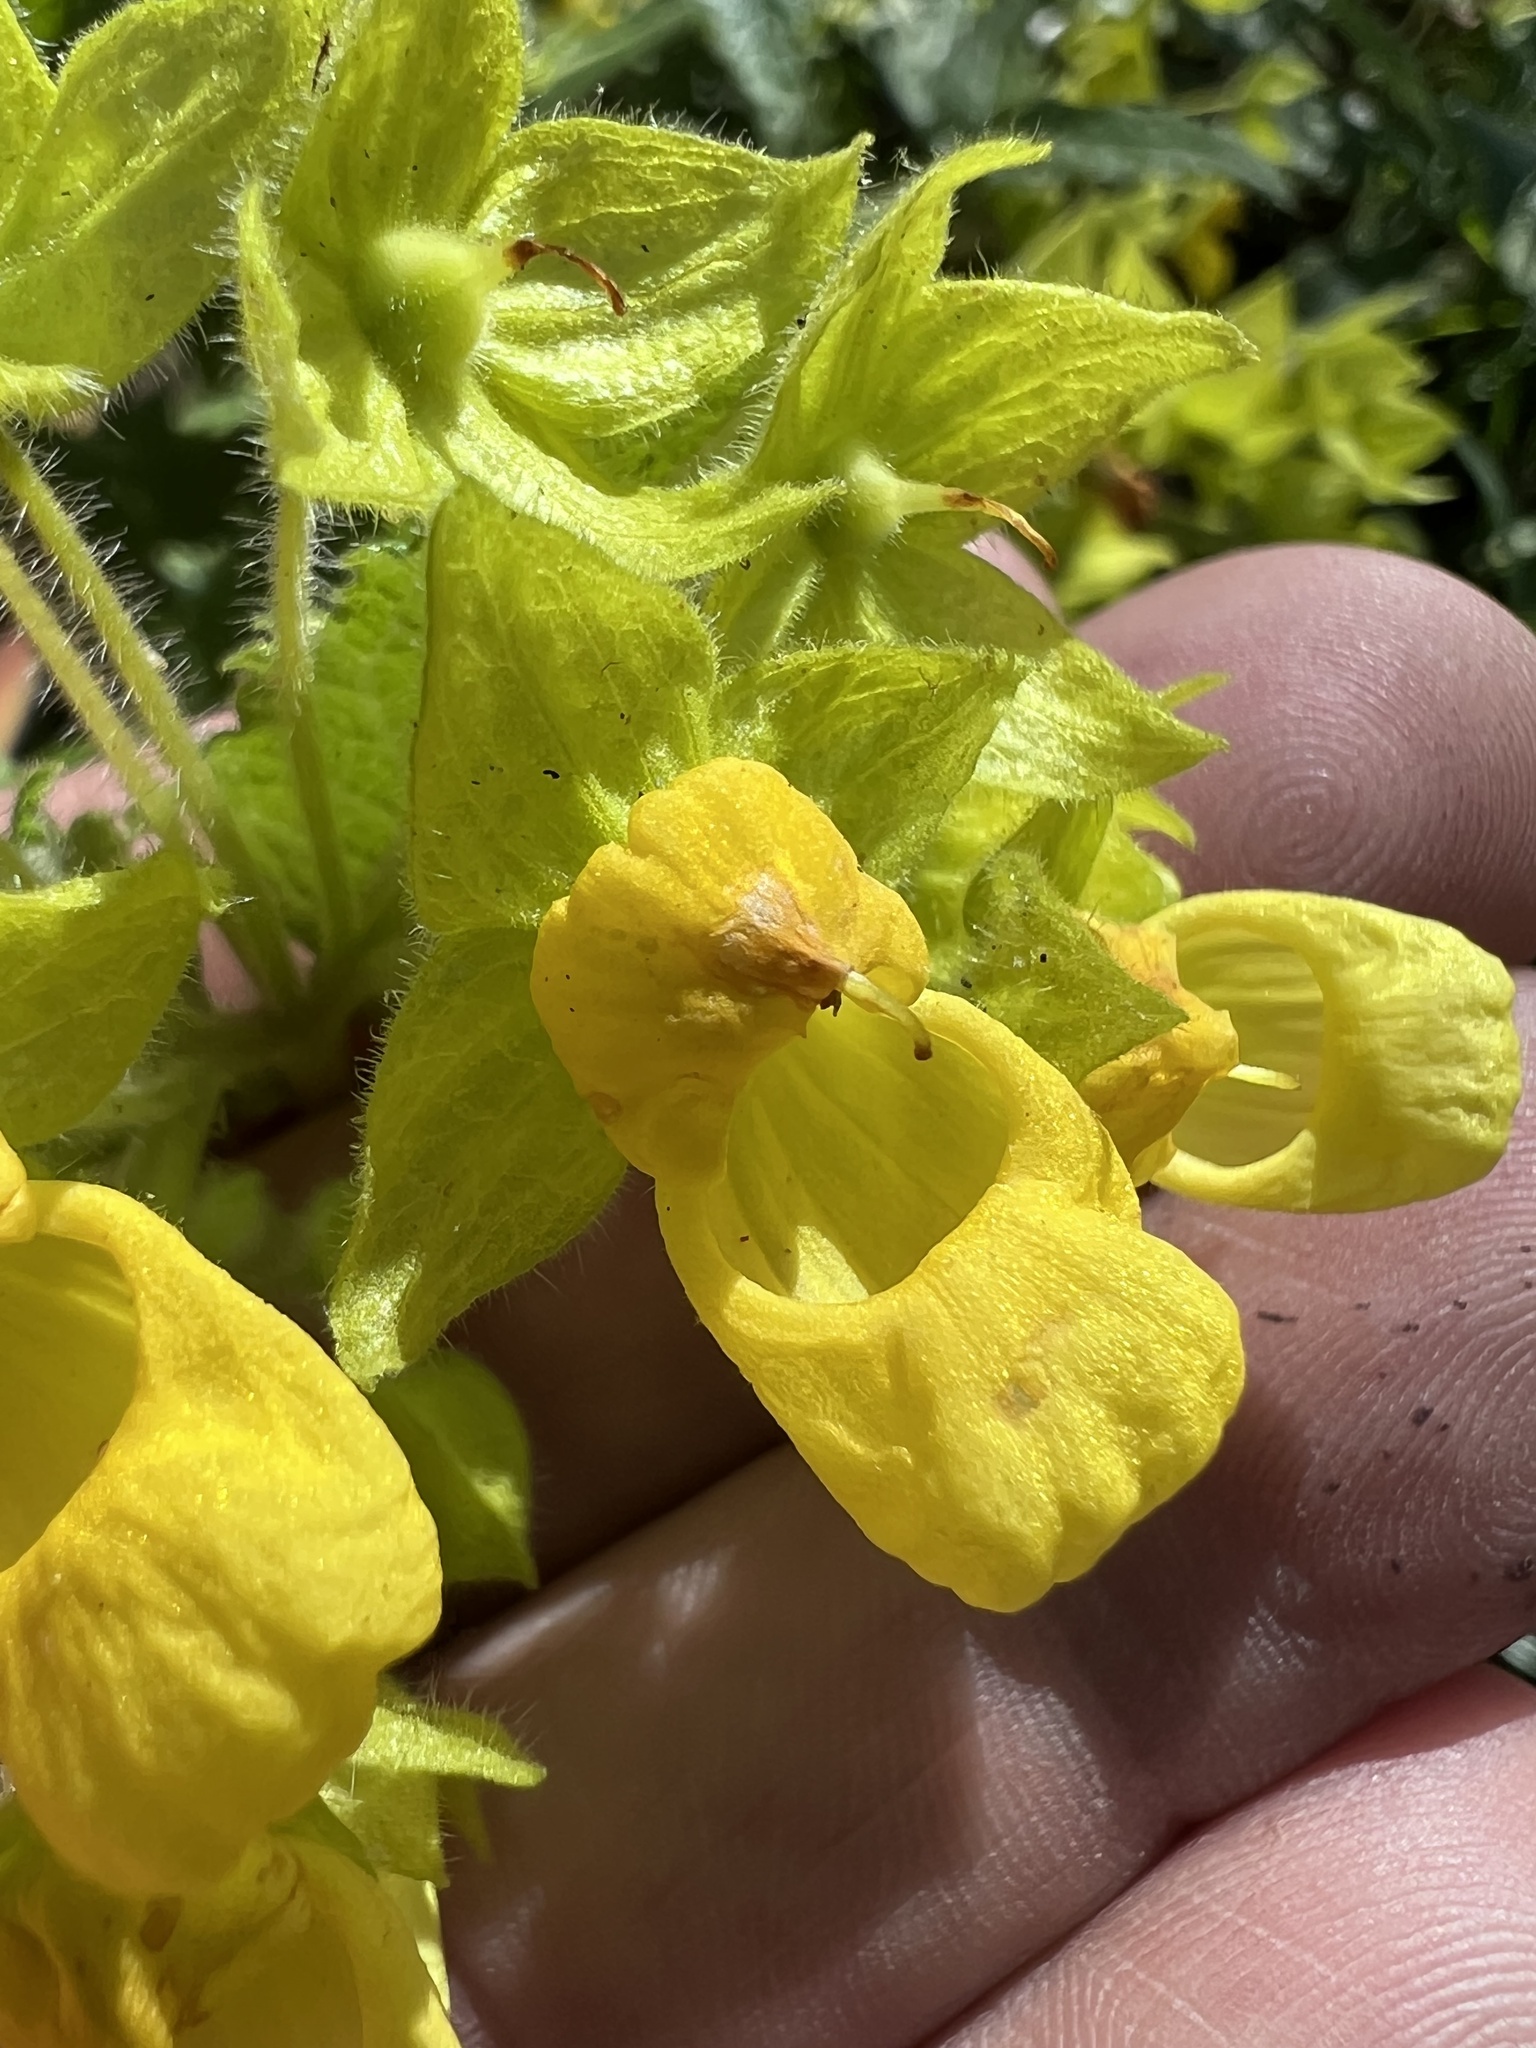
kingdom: Plantae
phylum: Tracheophyta
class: Magnoliopsida
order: Lamiales
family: Calceolariaceae
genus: Calceolaria
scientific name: Calceolaria perfoliata
